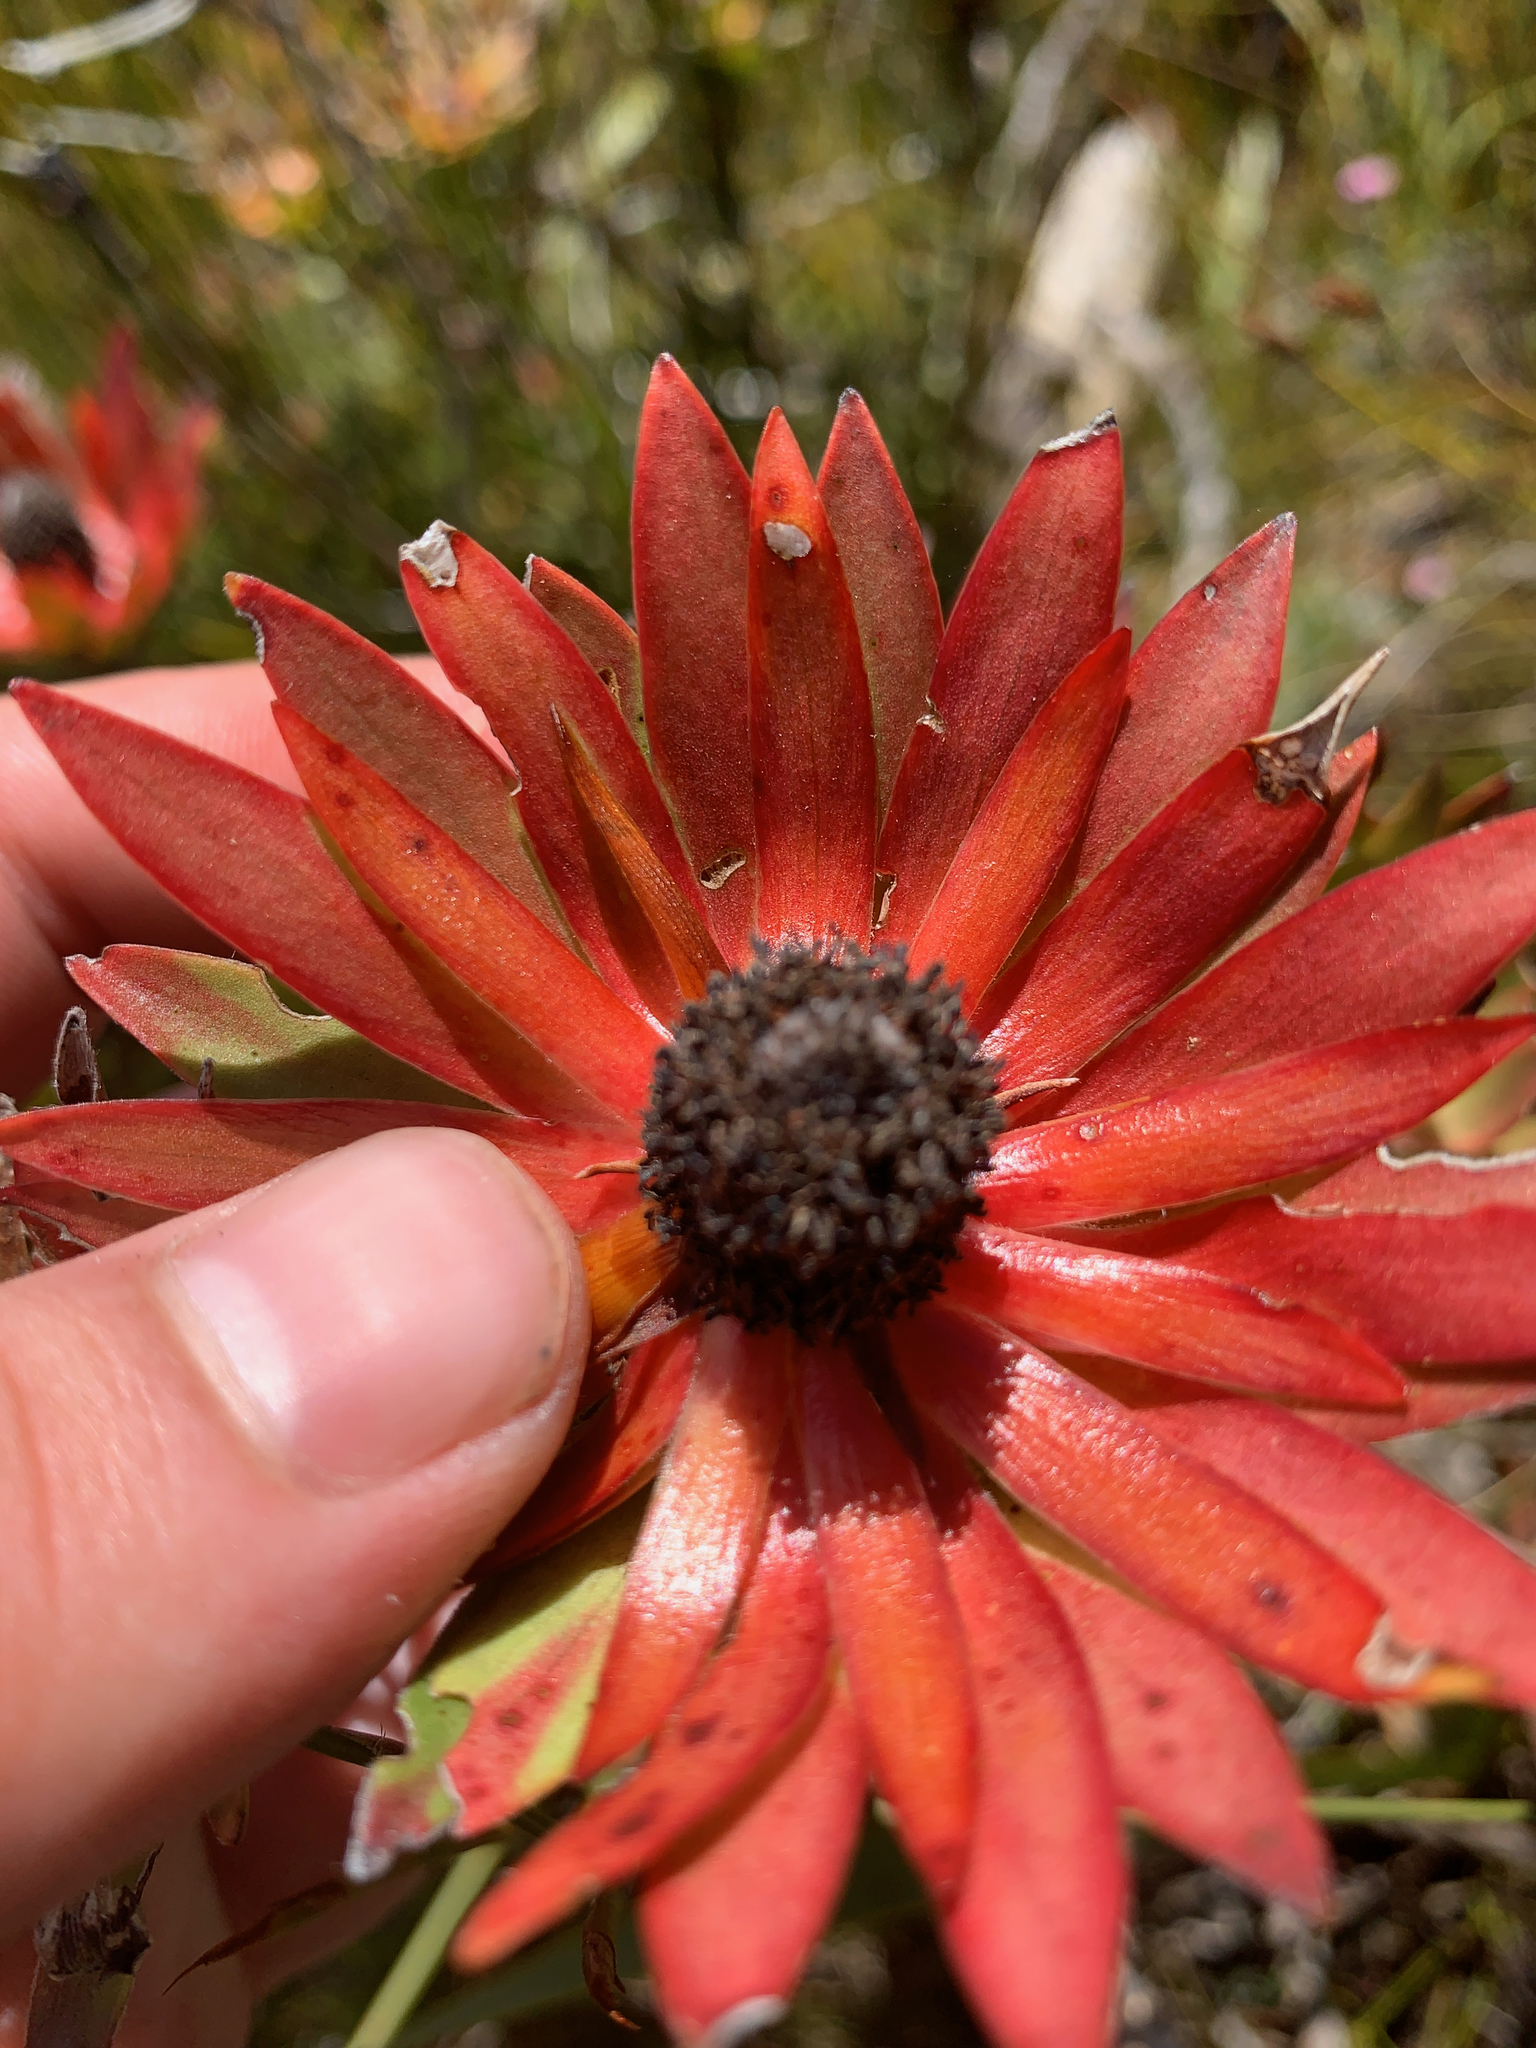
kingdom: Plantae
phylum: Tracheophyta
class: Magnoliopsida
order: Proteales
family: Proteaceae
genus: Leucadendron
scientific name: Leucadendron spissifolium
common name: Spear-leaf conebush
